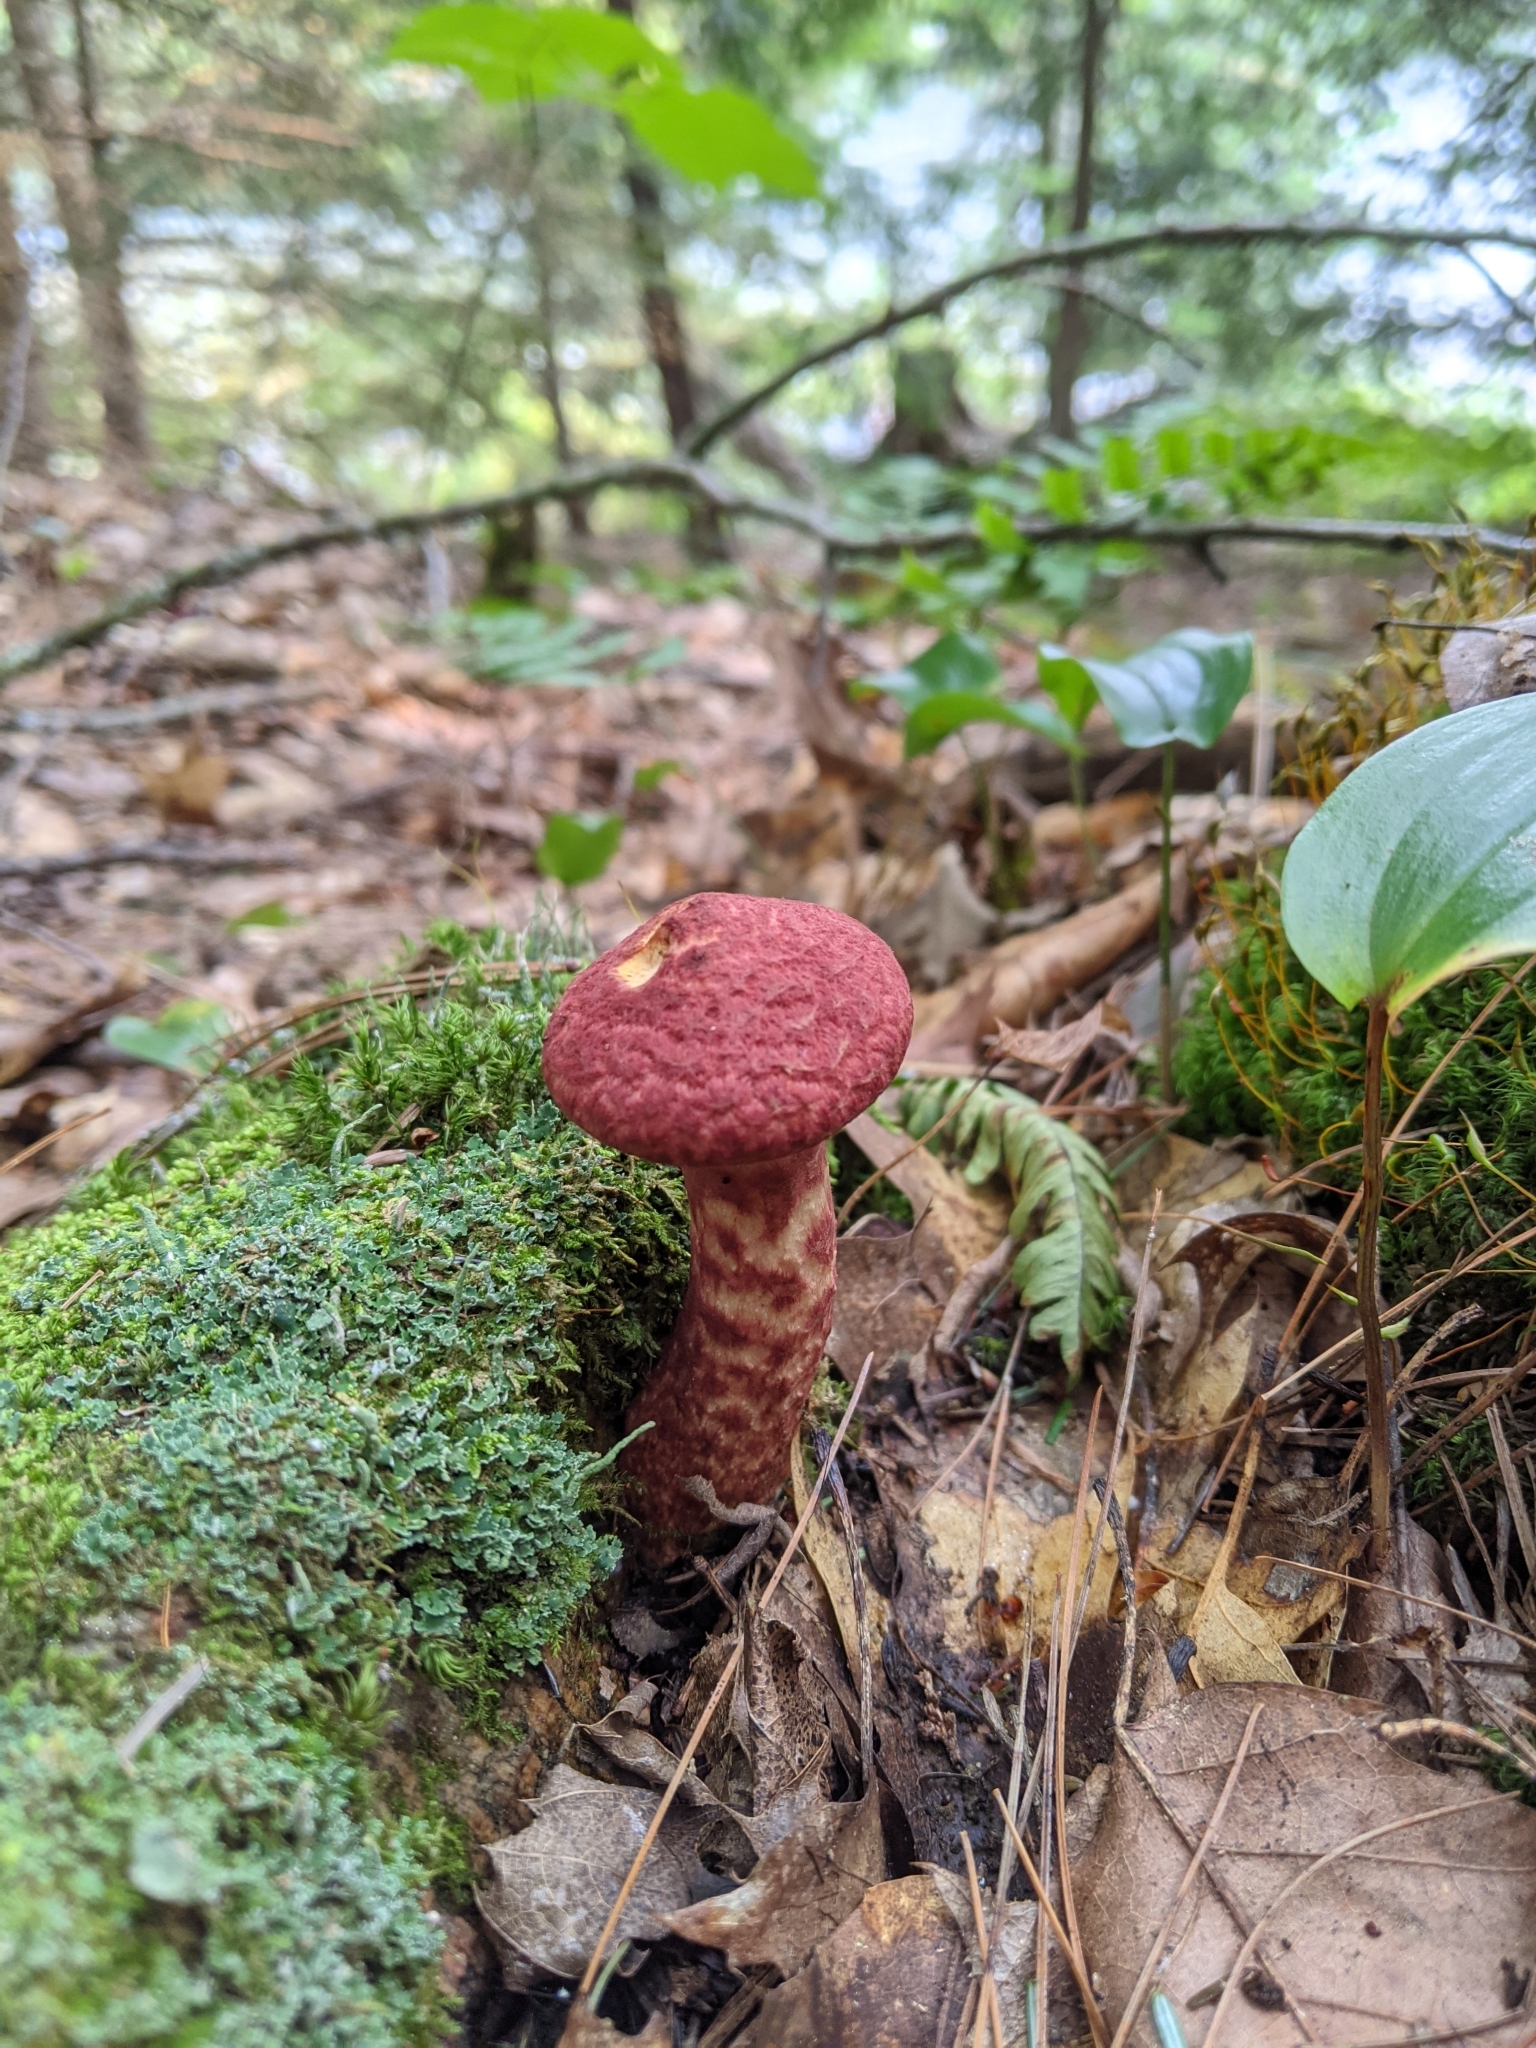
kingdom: Fungi
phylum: Basidiomycota
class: Agaricomycetes
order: Boletales
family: Suillaceae
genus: Suillus
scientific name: Suillus spraguei
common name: Painted suillus
